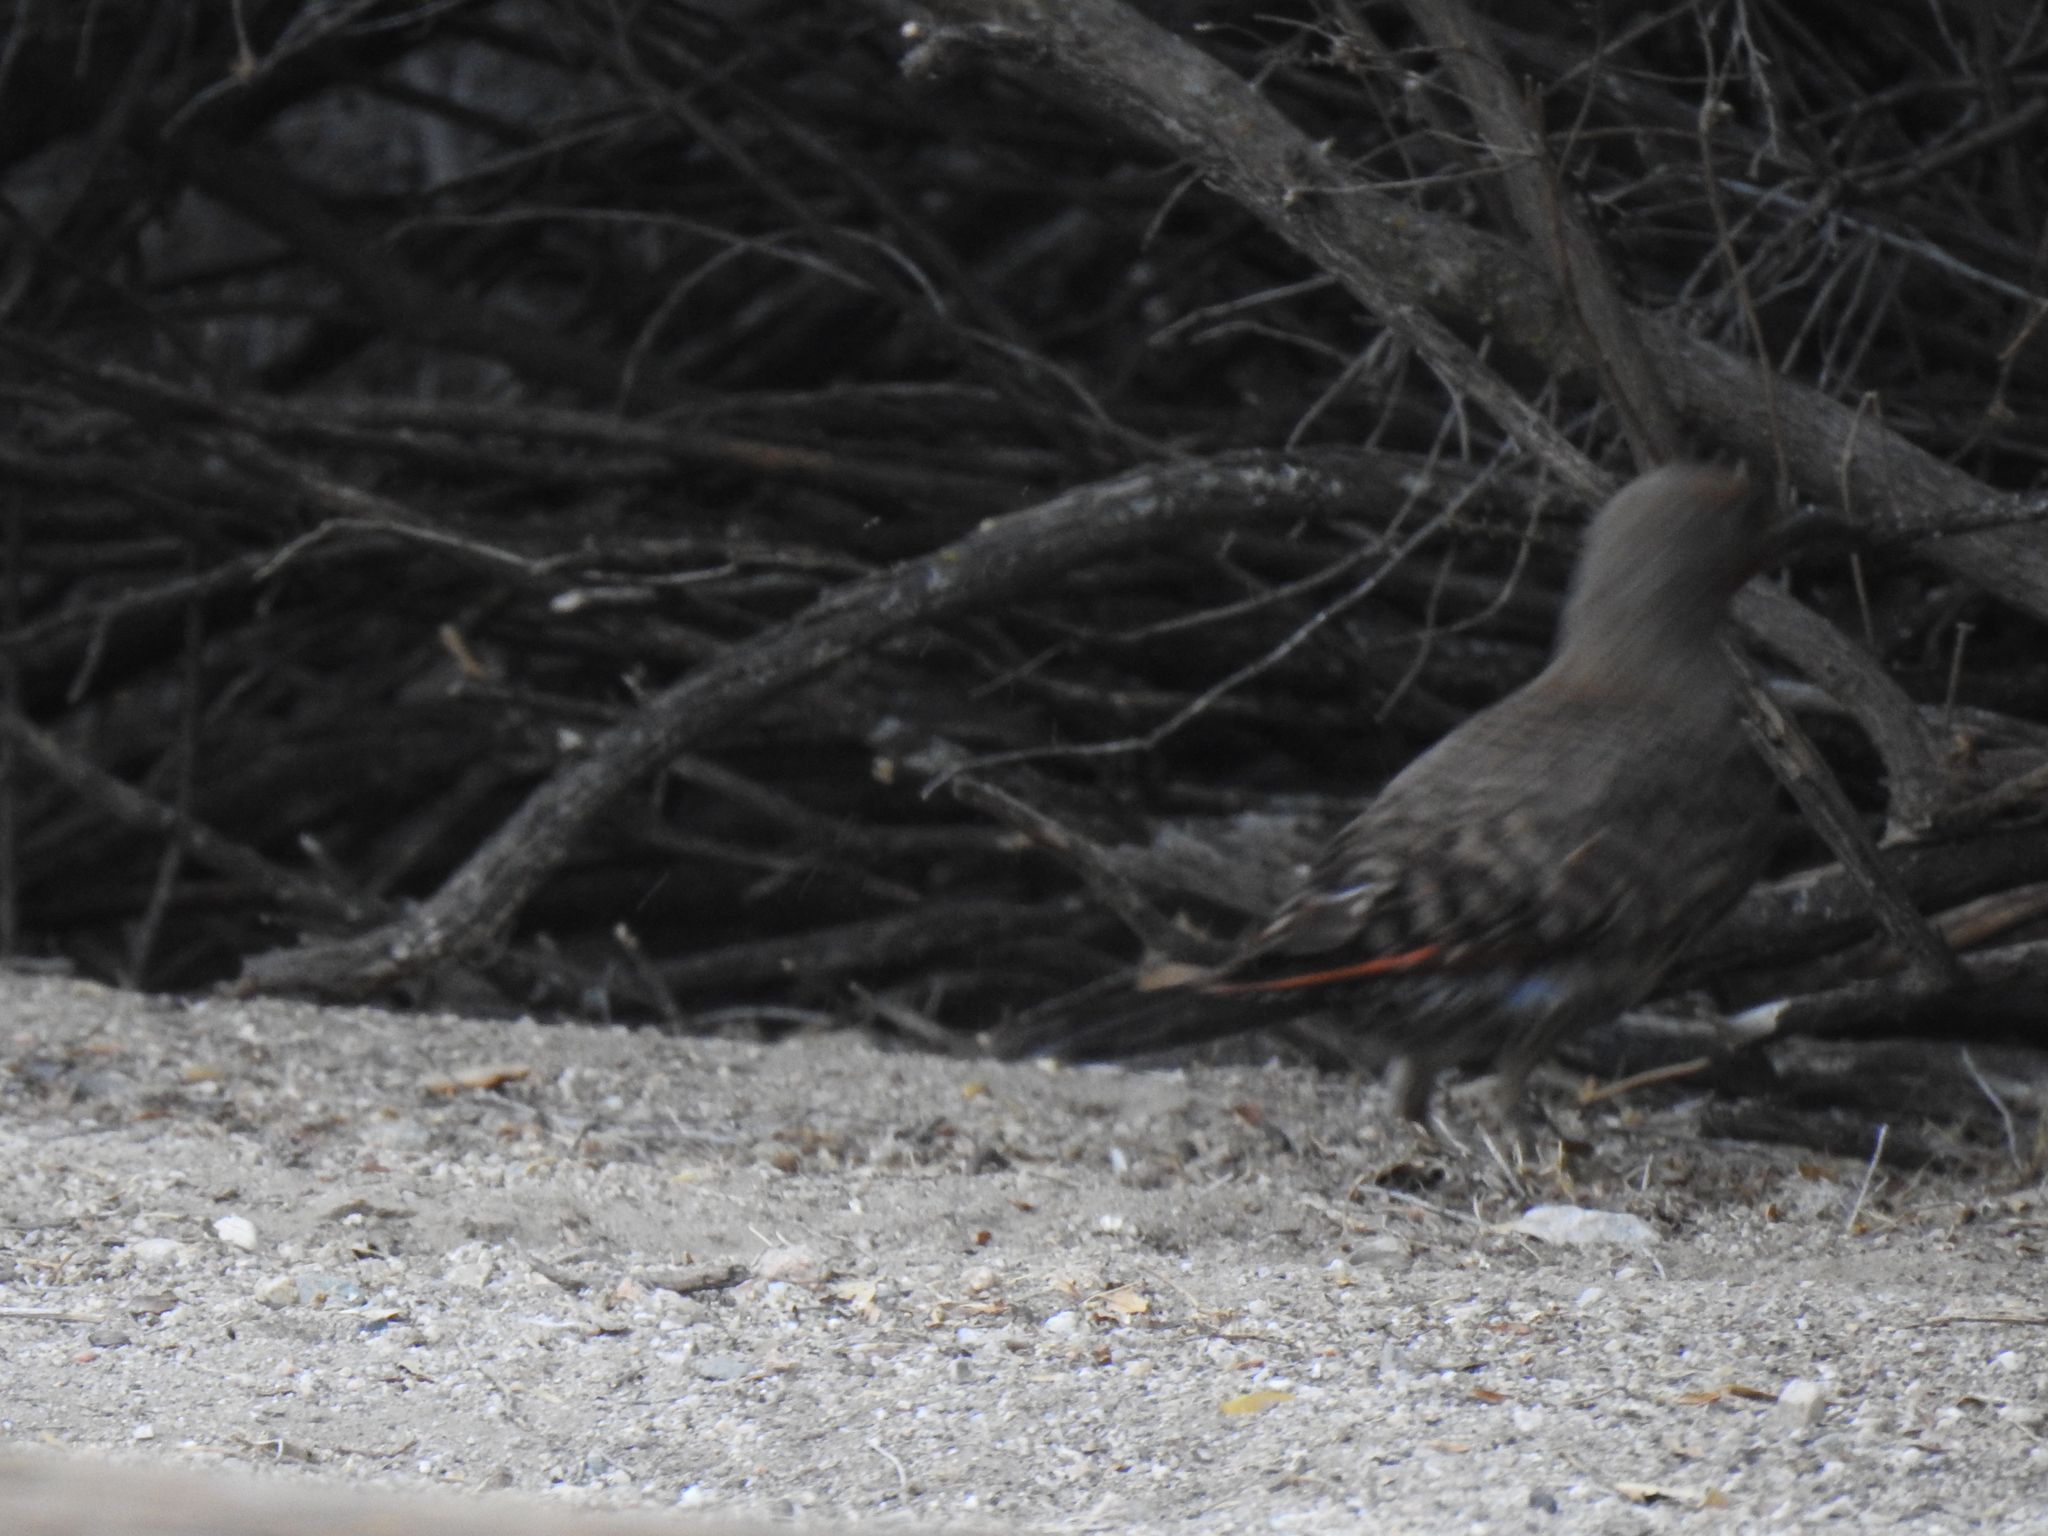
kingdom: Animalia
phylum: Chordata
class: Aves
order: Piciformes
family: Picidae
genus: Colaptes
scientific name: Colaptes auratus
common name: Northern flicker
